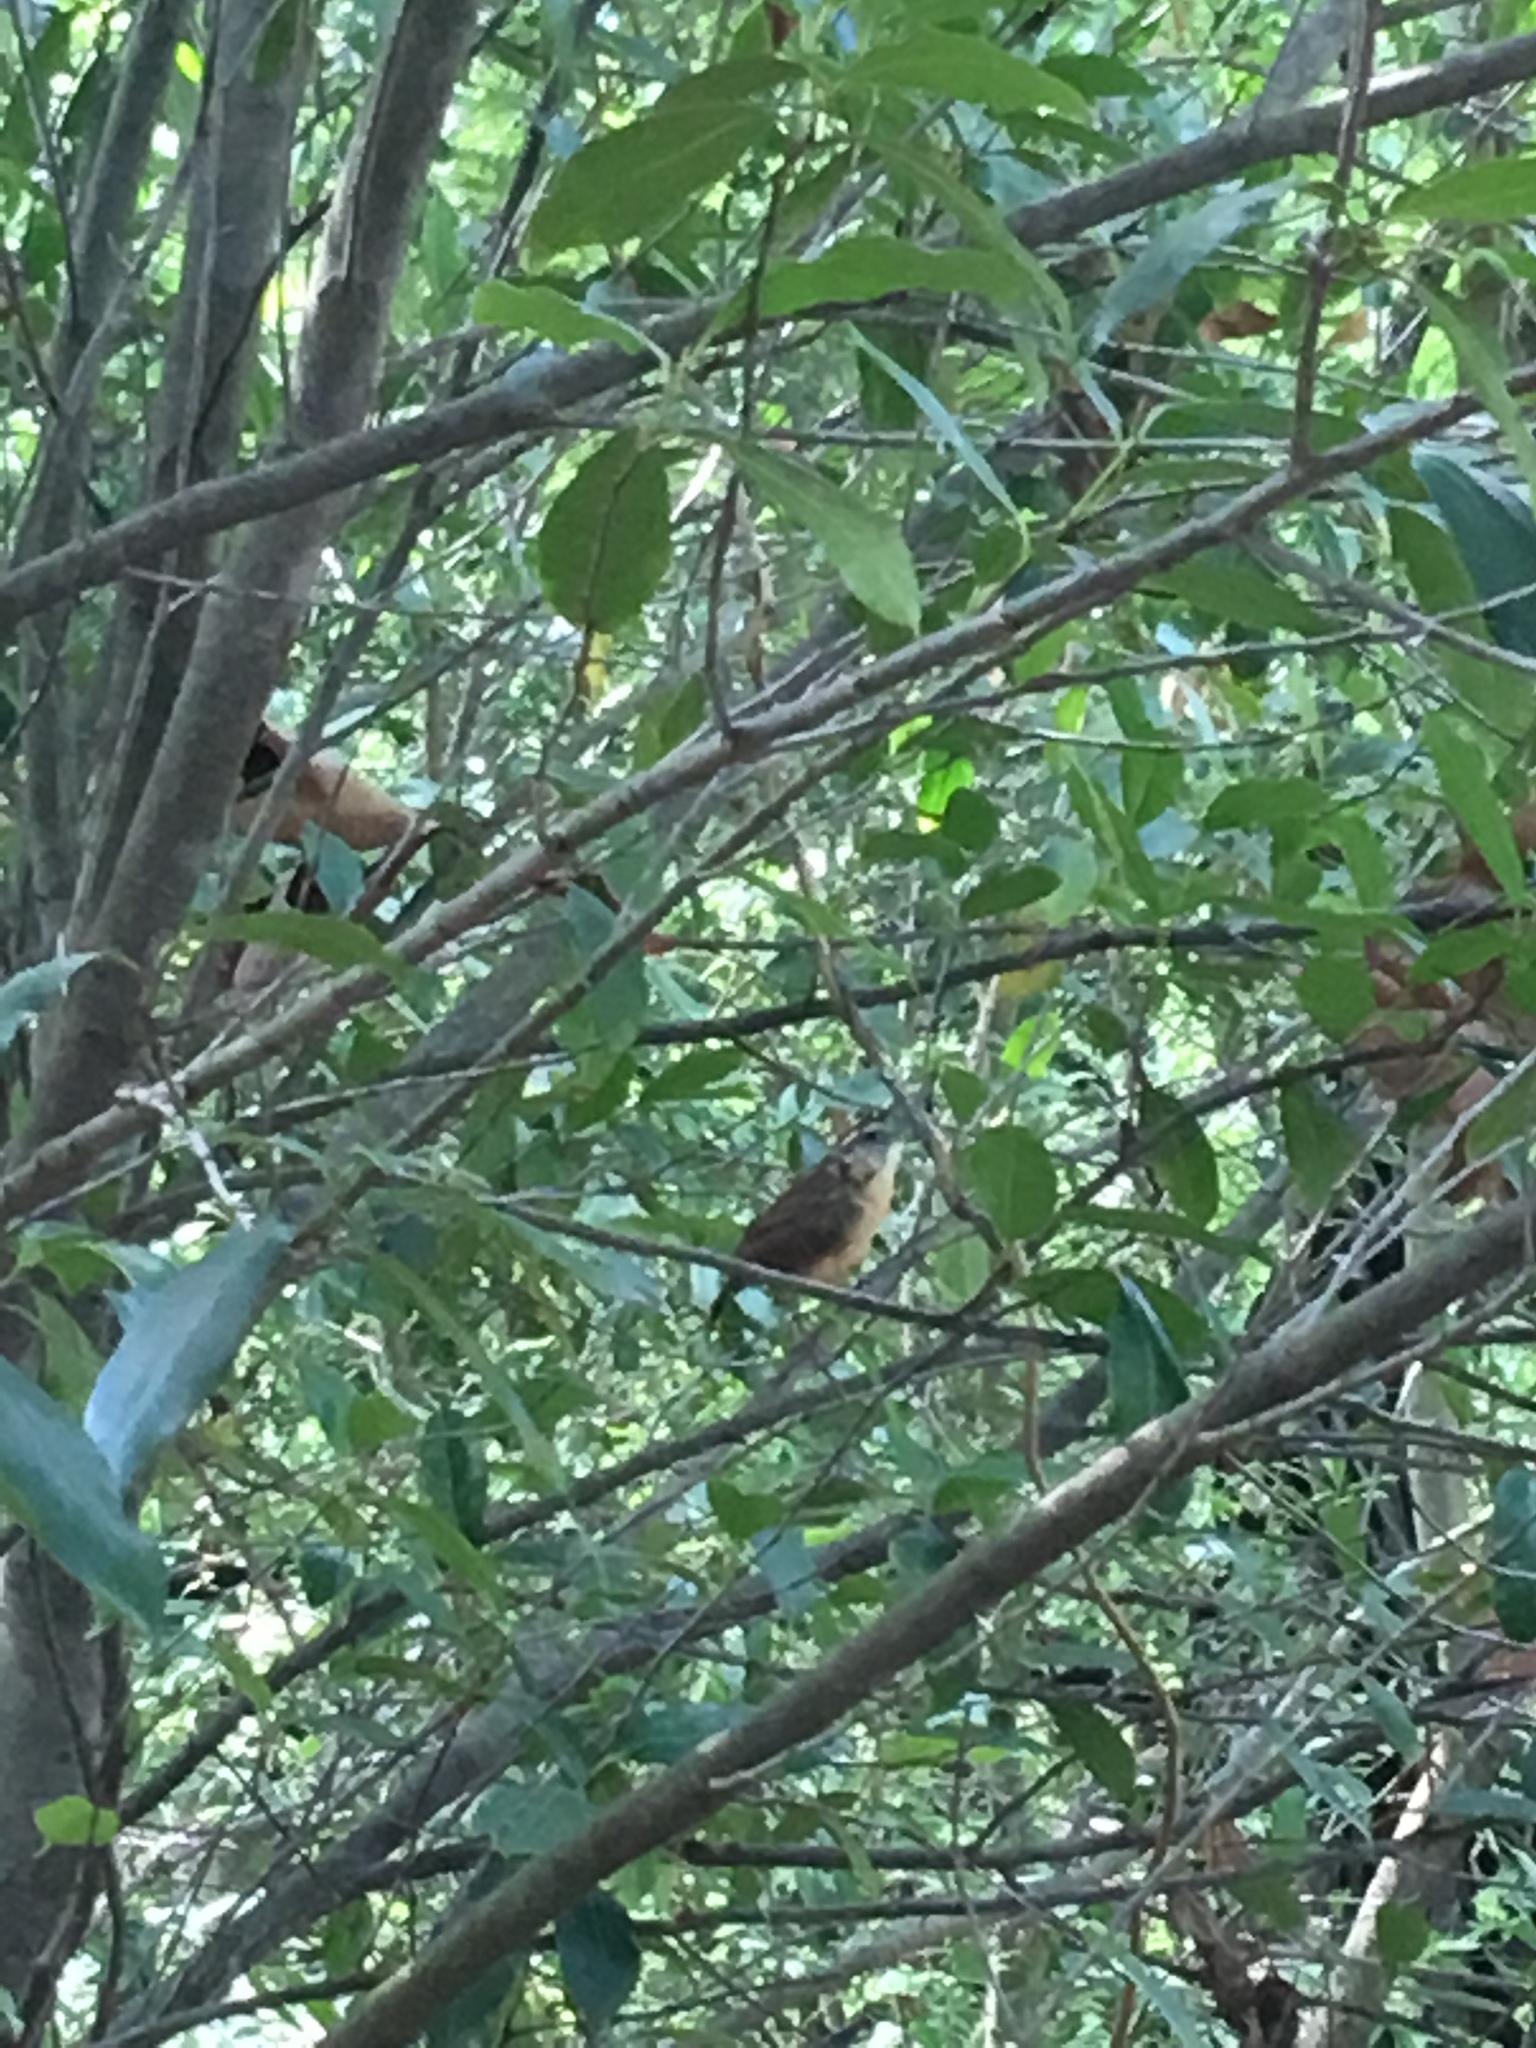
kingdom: Animalia
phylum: Chordata
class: Aves
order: Passeriformes
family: Troglodytidae
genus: Thryothorus
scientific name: Thryothorus ludovicianus
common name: Carolina wren
